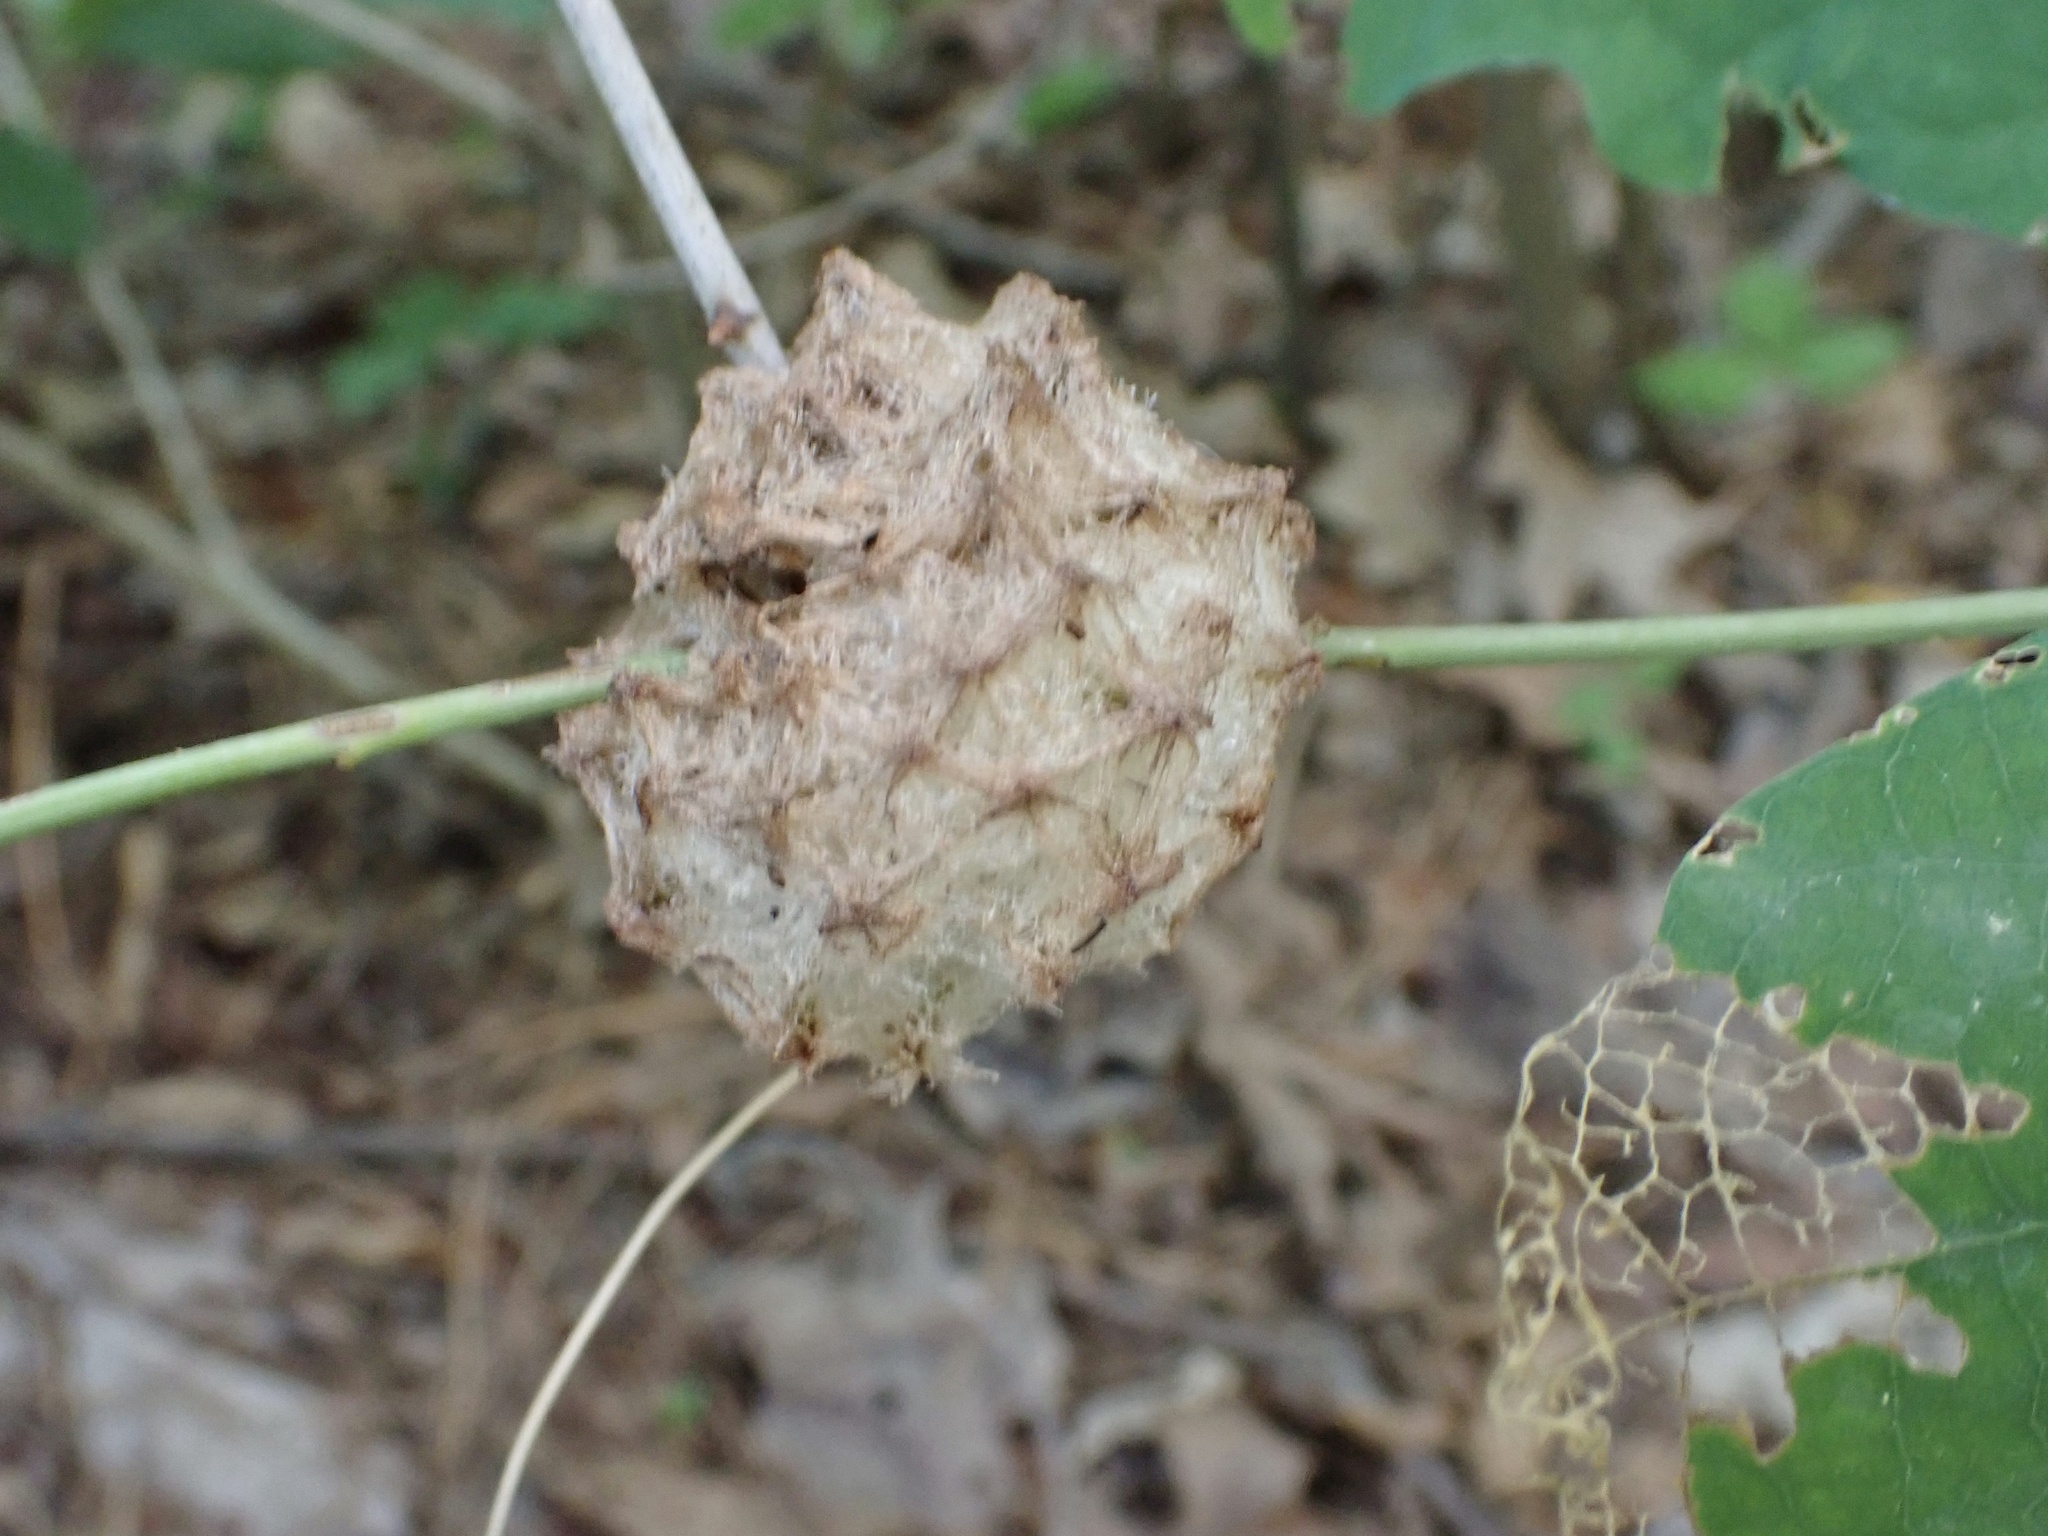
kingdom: Animalia
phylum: Arthropoda
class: Insecta
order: Hymenoptera
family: Cynipidae
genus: Callirhytis
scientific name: Callirhytis
